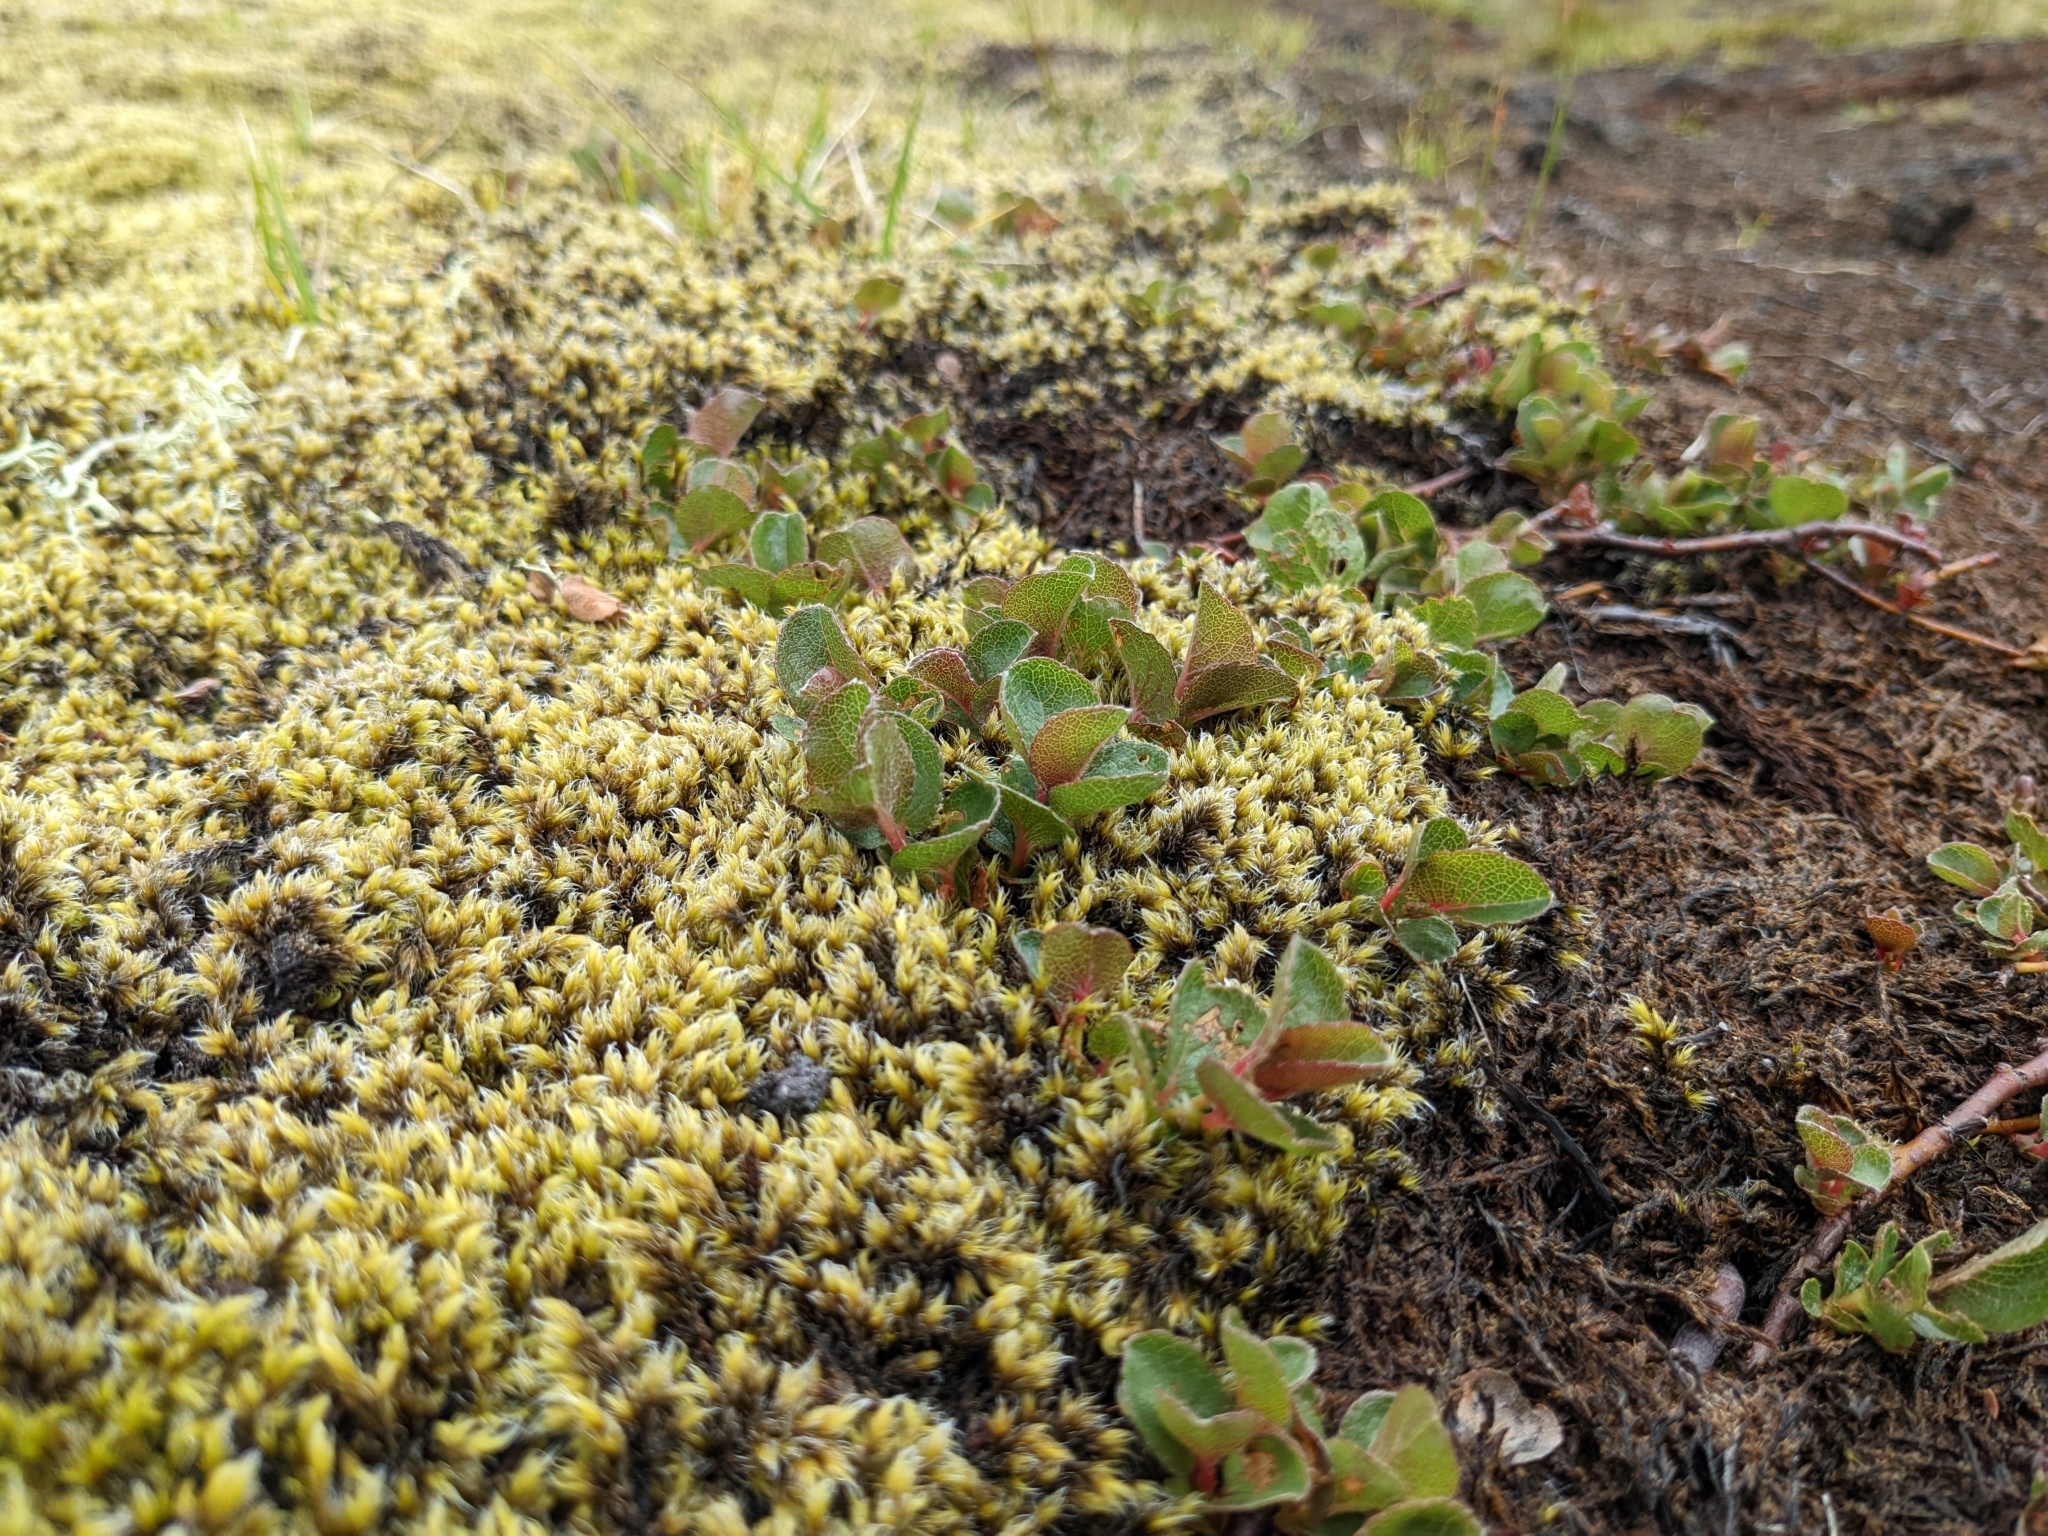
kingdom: Plantae
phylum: Tracheophyta
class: Magnoliopsida
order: Malpighiales
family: Salicaceae
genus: Salix
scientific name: Salix herbacea
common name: Dwarf willow
